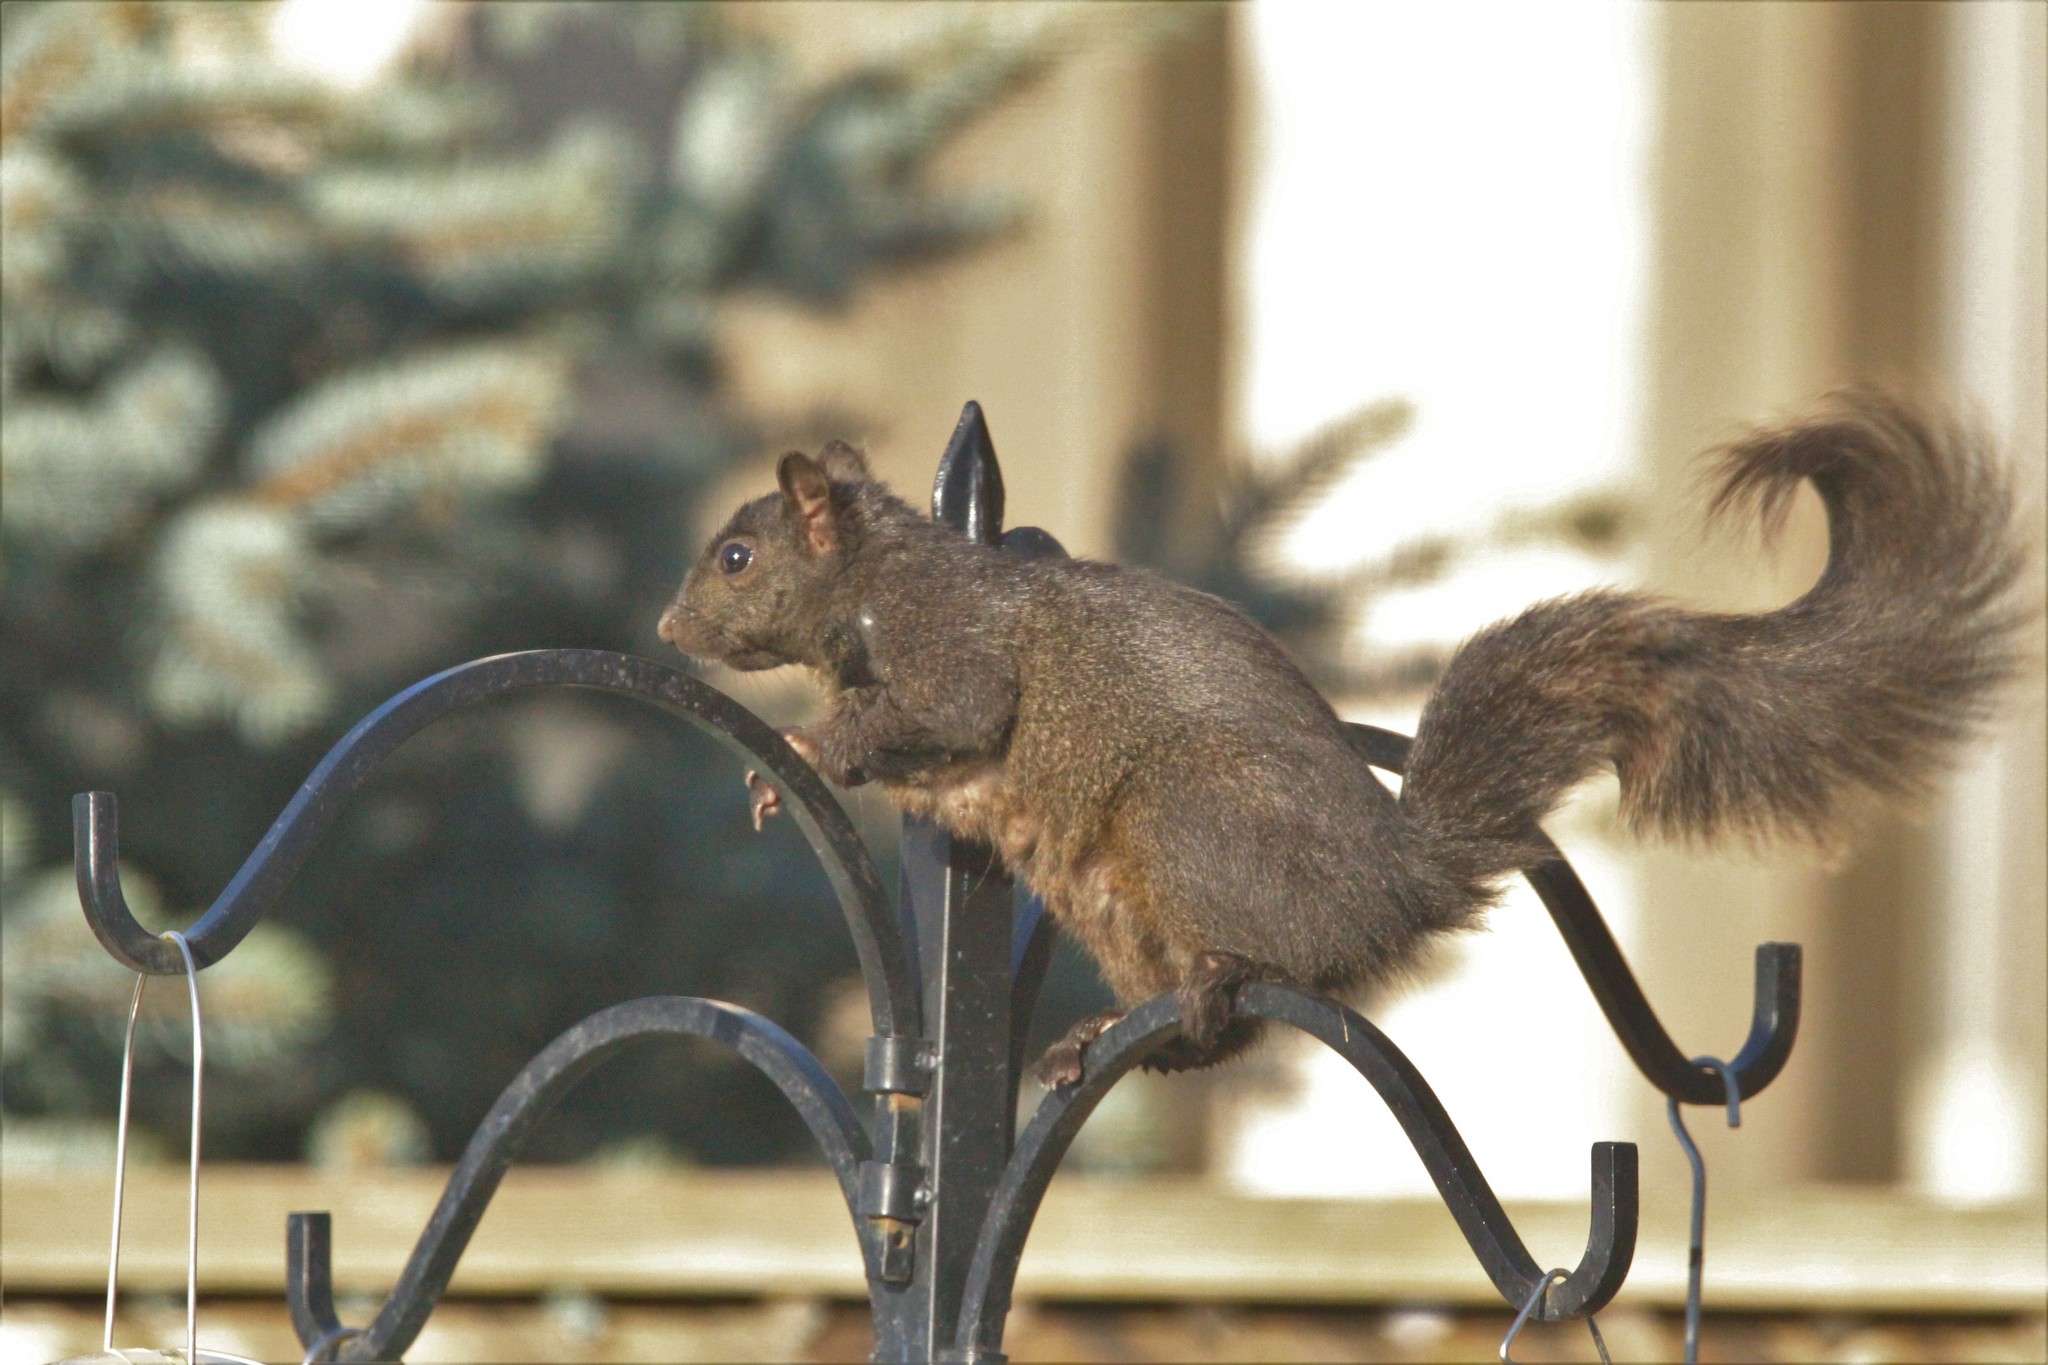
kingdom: Animalia
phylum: Chordata
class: Mammalia
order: Rodentia
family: Sciuridae
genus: Sciurus
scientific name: Sciurus carolinensis
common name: Eastern gray squirrel
